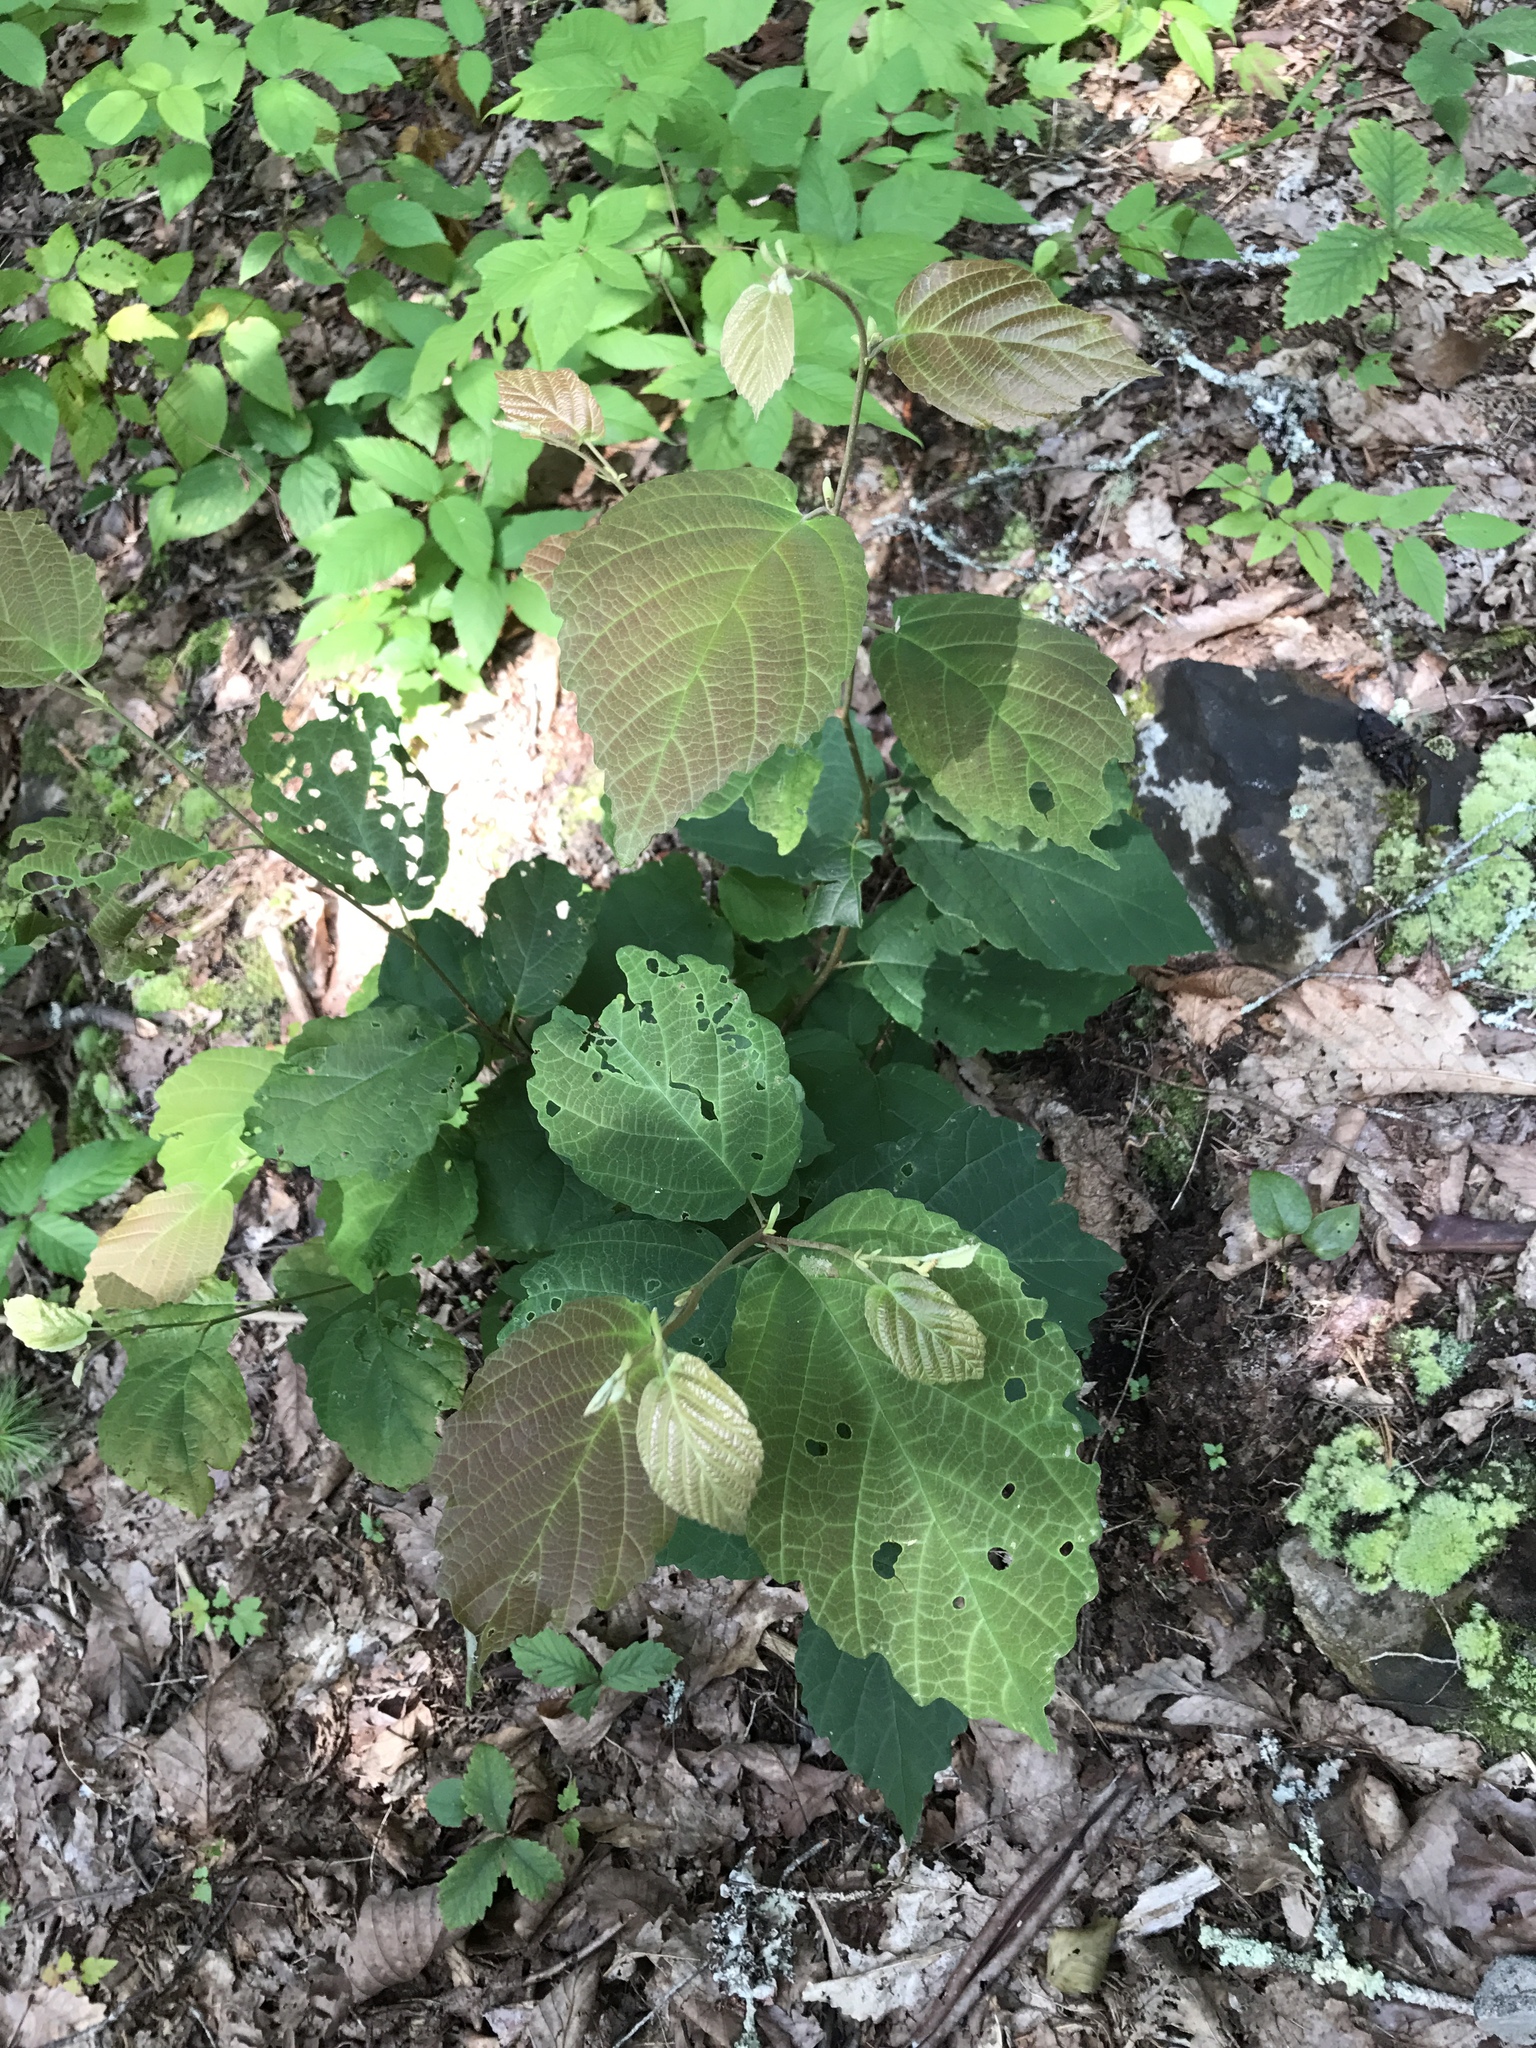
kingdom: Plantae
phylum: Tracheophyta
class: Magnoliopsida
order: Saxifragales
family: Hamamelidaceae
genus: Hamamelis
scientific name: Hamamelis virginiana
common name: Witch-hazel
